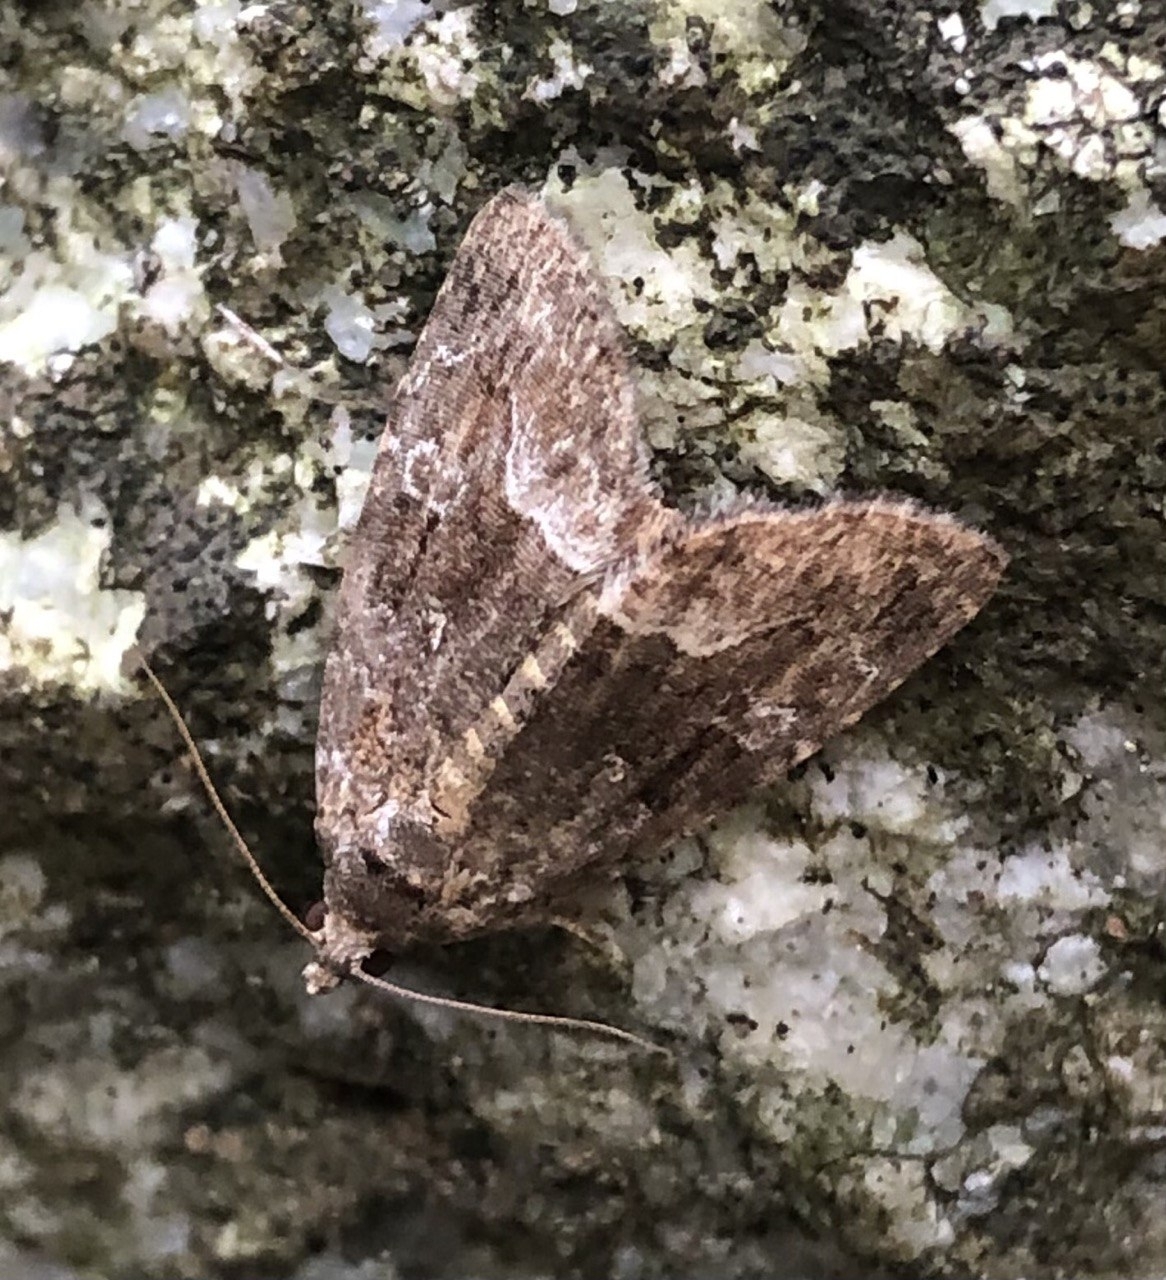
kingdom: Animalia
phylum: Arthropoda
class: Insecta
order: Lepidoptera
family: Noctuidae
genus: Deltote
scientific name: Deltote pygarga
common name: Marbled white spot
